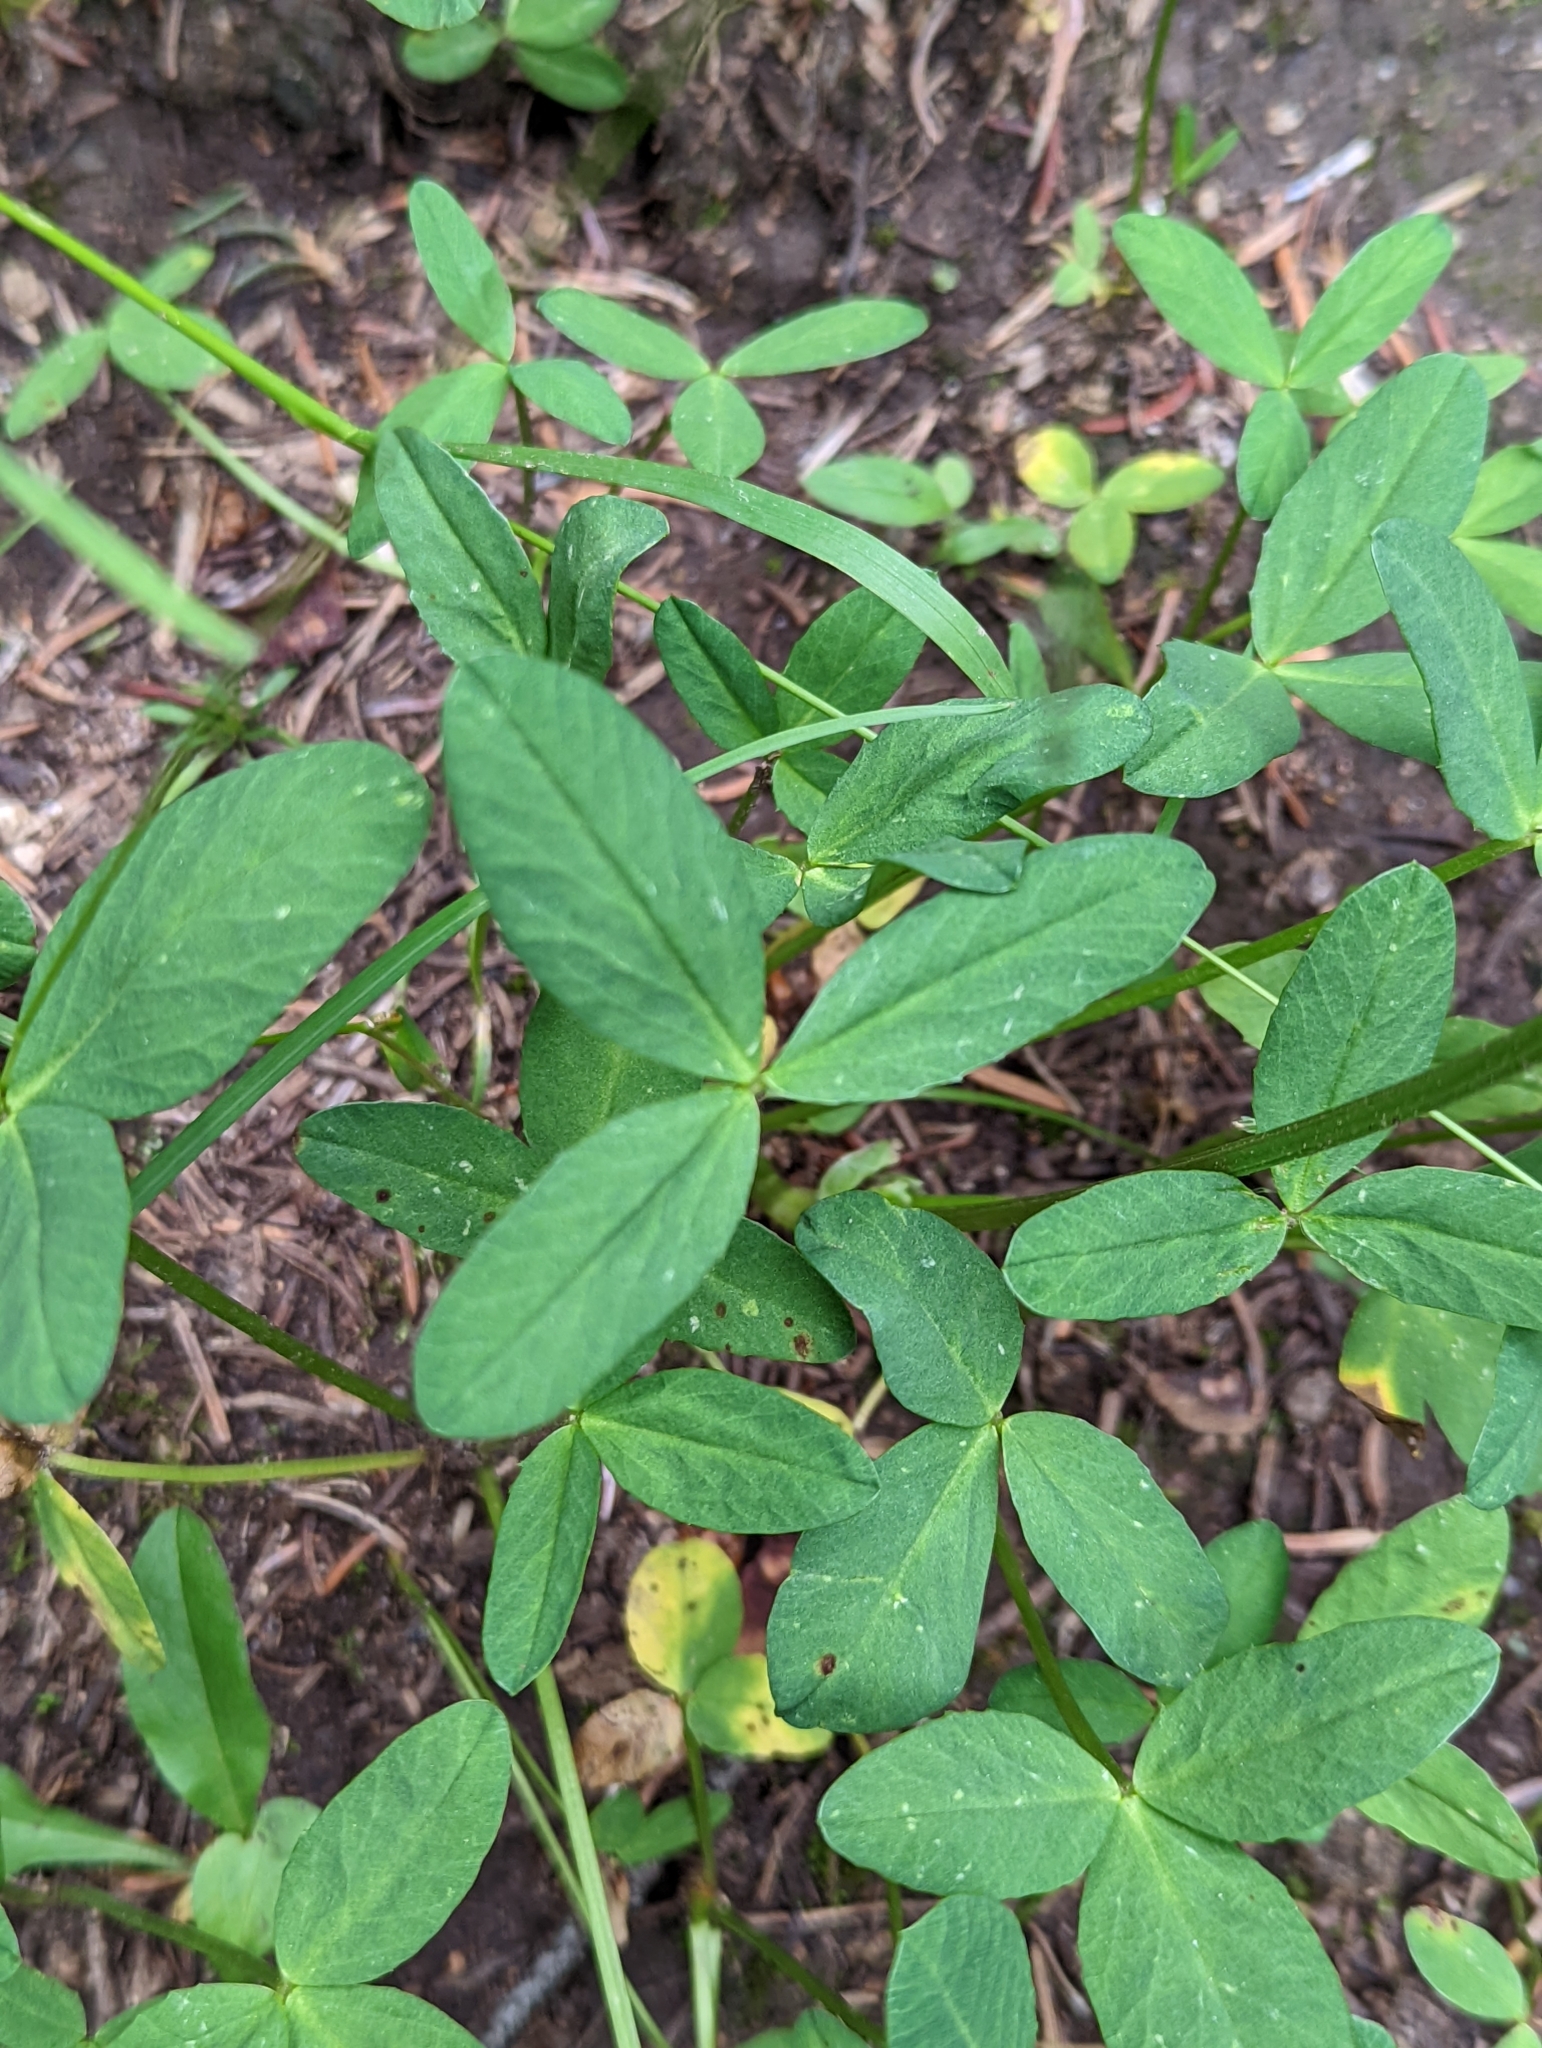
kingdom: Plantae
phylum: Tracheophyta
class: Magnoliopsida
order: Fabales
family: Fabaceae
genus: Trifolium
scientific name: Trifolium parryi
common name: Parry's clover
